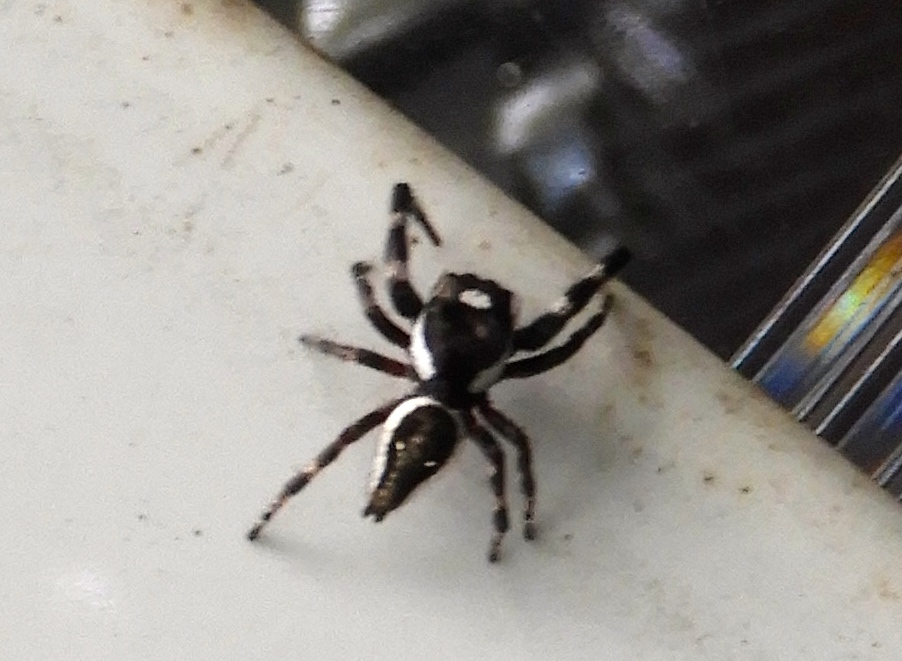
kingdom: Animalia
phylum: Arthropoda
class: Arachnida
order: Araneae
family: Salticidae
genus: Dendryphantes
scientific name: Dendryphantes zygoballoides
